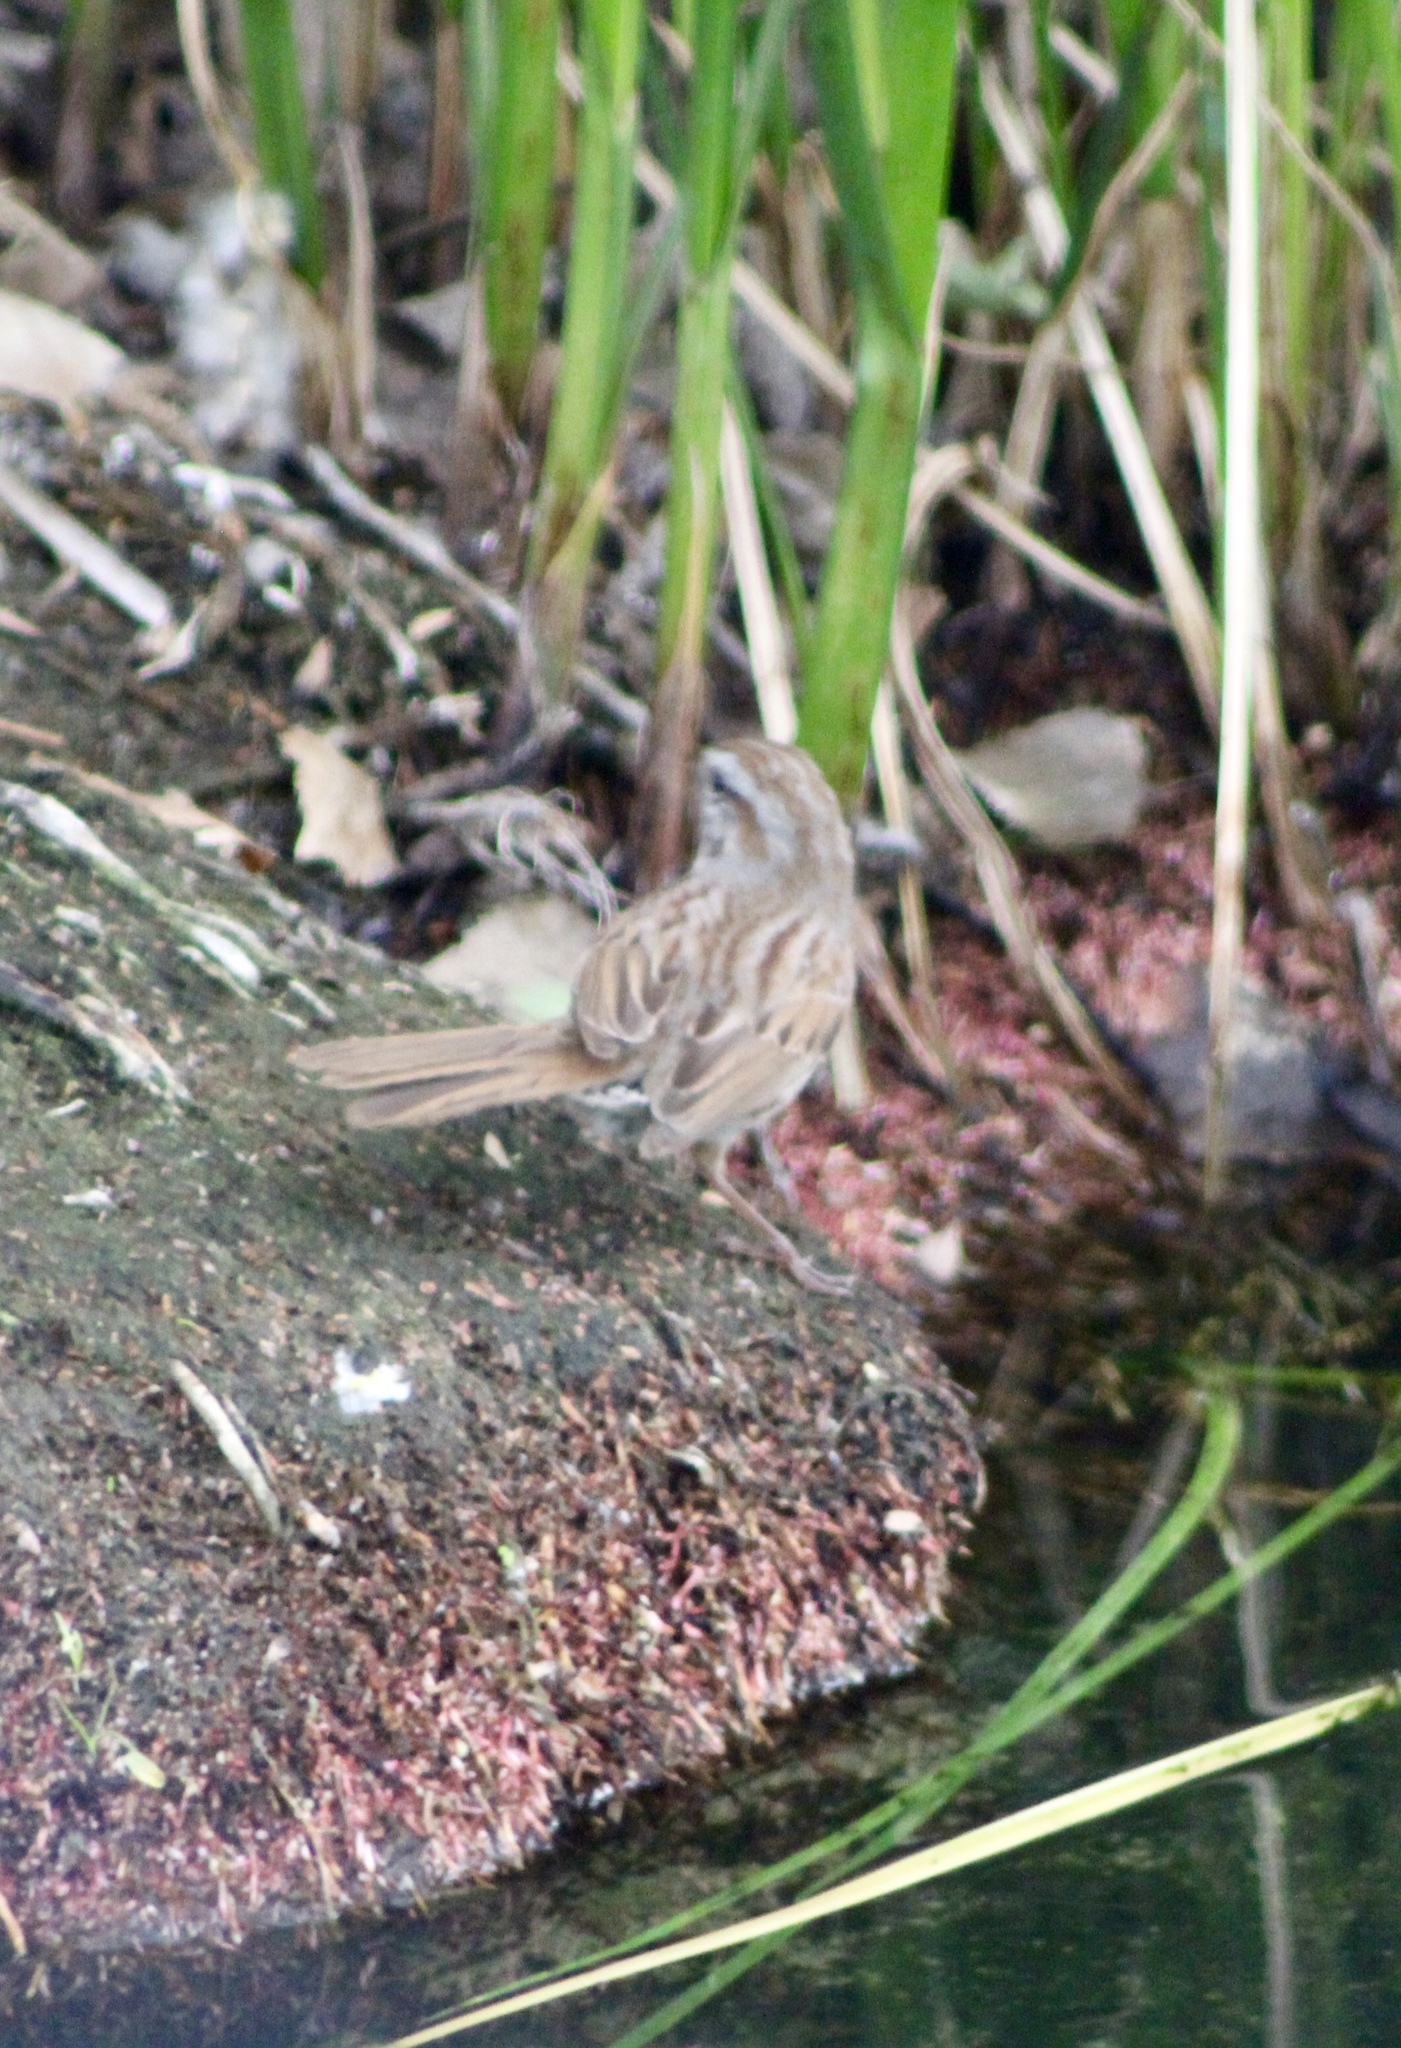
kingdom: Animalia
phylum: Chordata
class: Aves
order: Passeriformes
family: Passerellidae
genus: Melospiza
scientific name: Melospiza melodia
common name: Song sparrow
